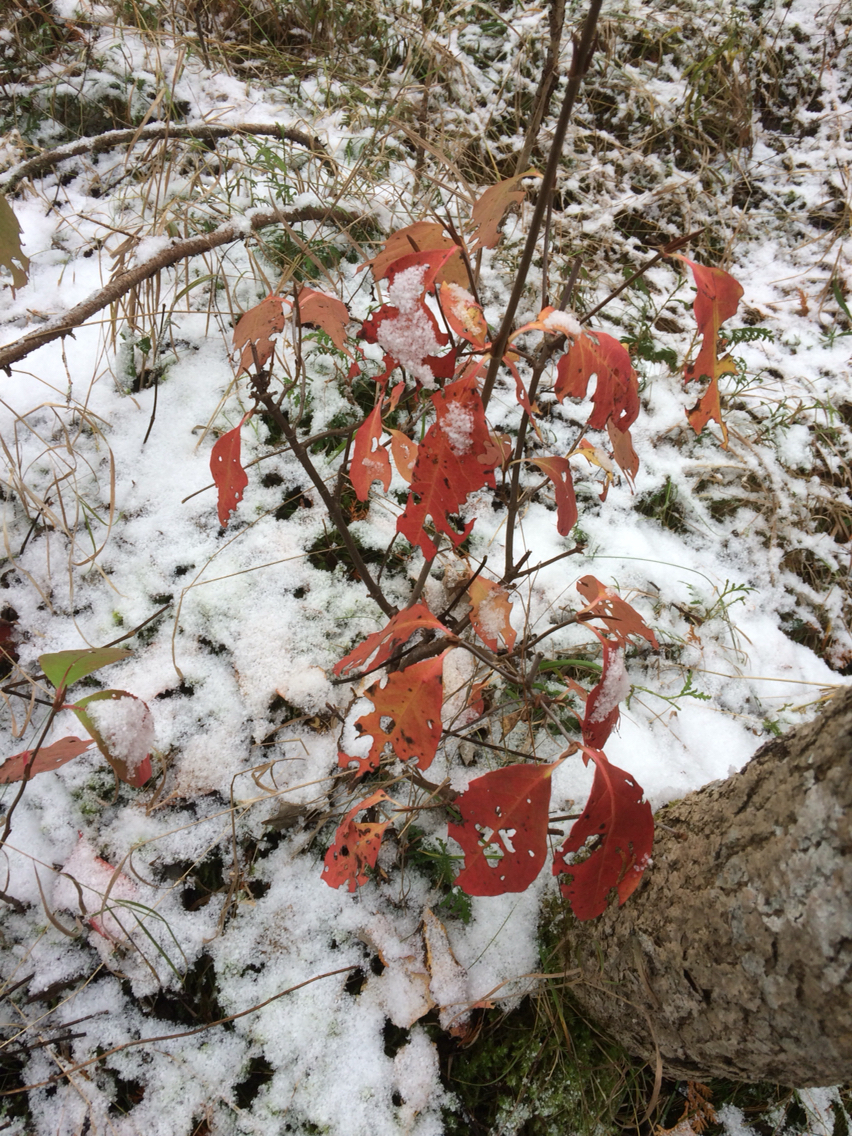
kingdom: Plantae
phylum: Tracheophyta
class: Magnoliopsida
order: Dipsacales
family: Viburnaceae
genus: Viburnum
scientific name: Viburnum cassinoides
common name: Swamp haw
